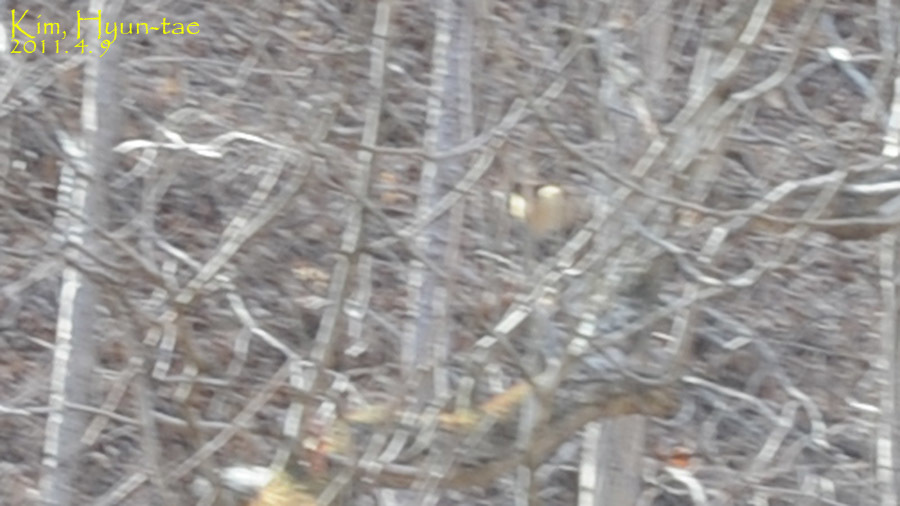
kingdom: Animalia
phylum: Chordata
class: Mammalia
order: Carnivora
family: Mustelidae
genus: Martes
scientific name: Martes flavigula
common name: Yellow-throated marten
